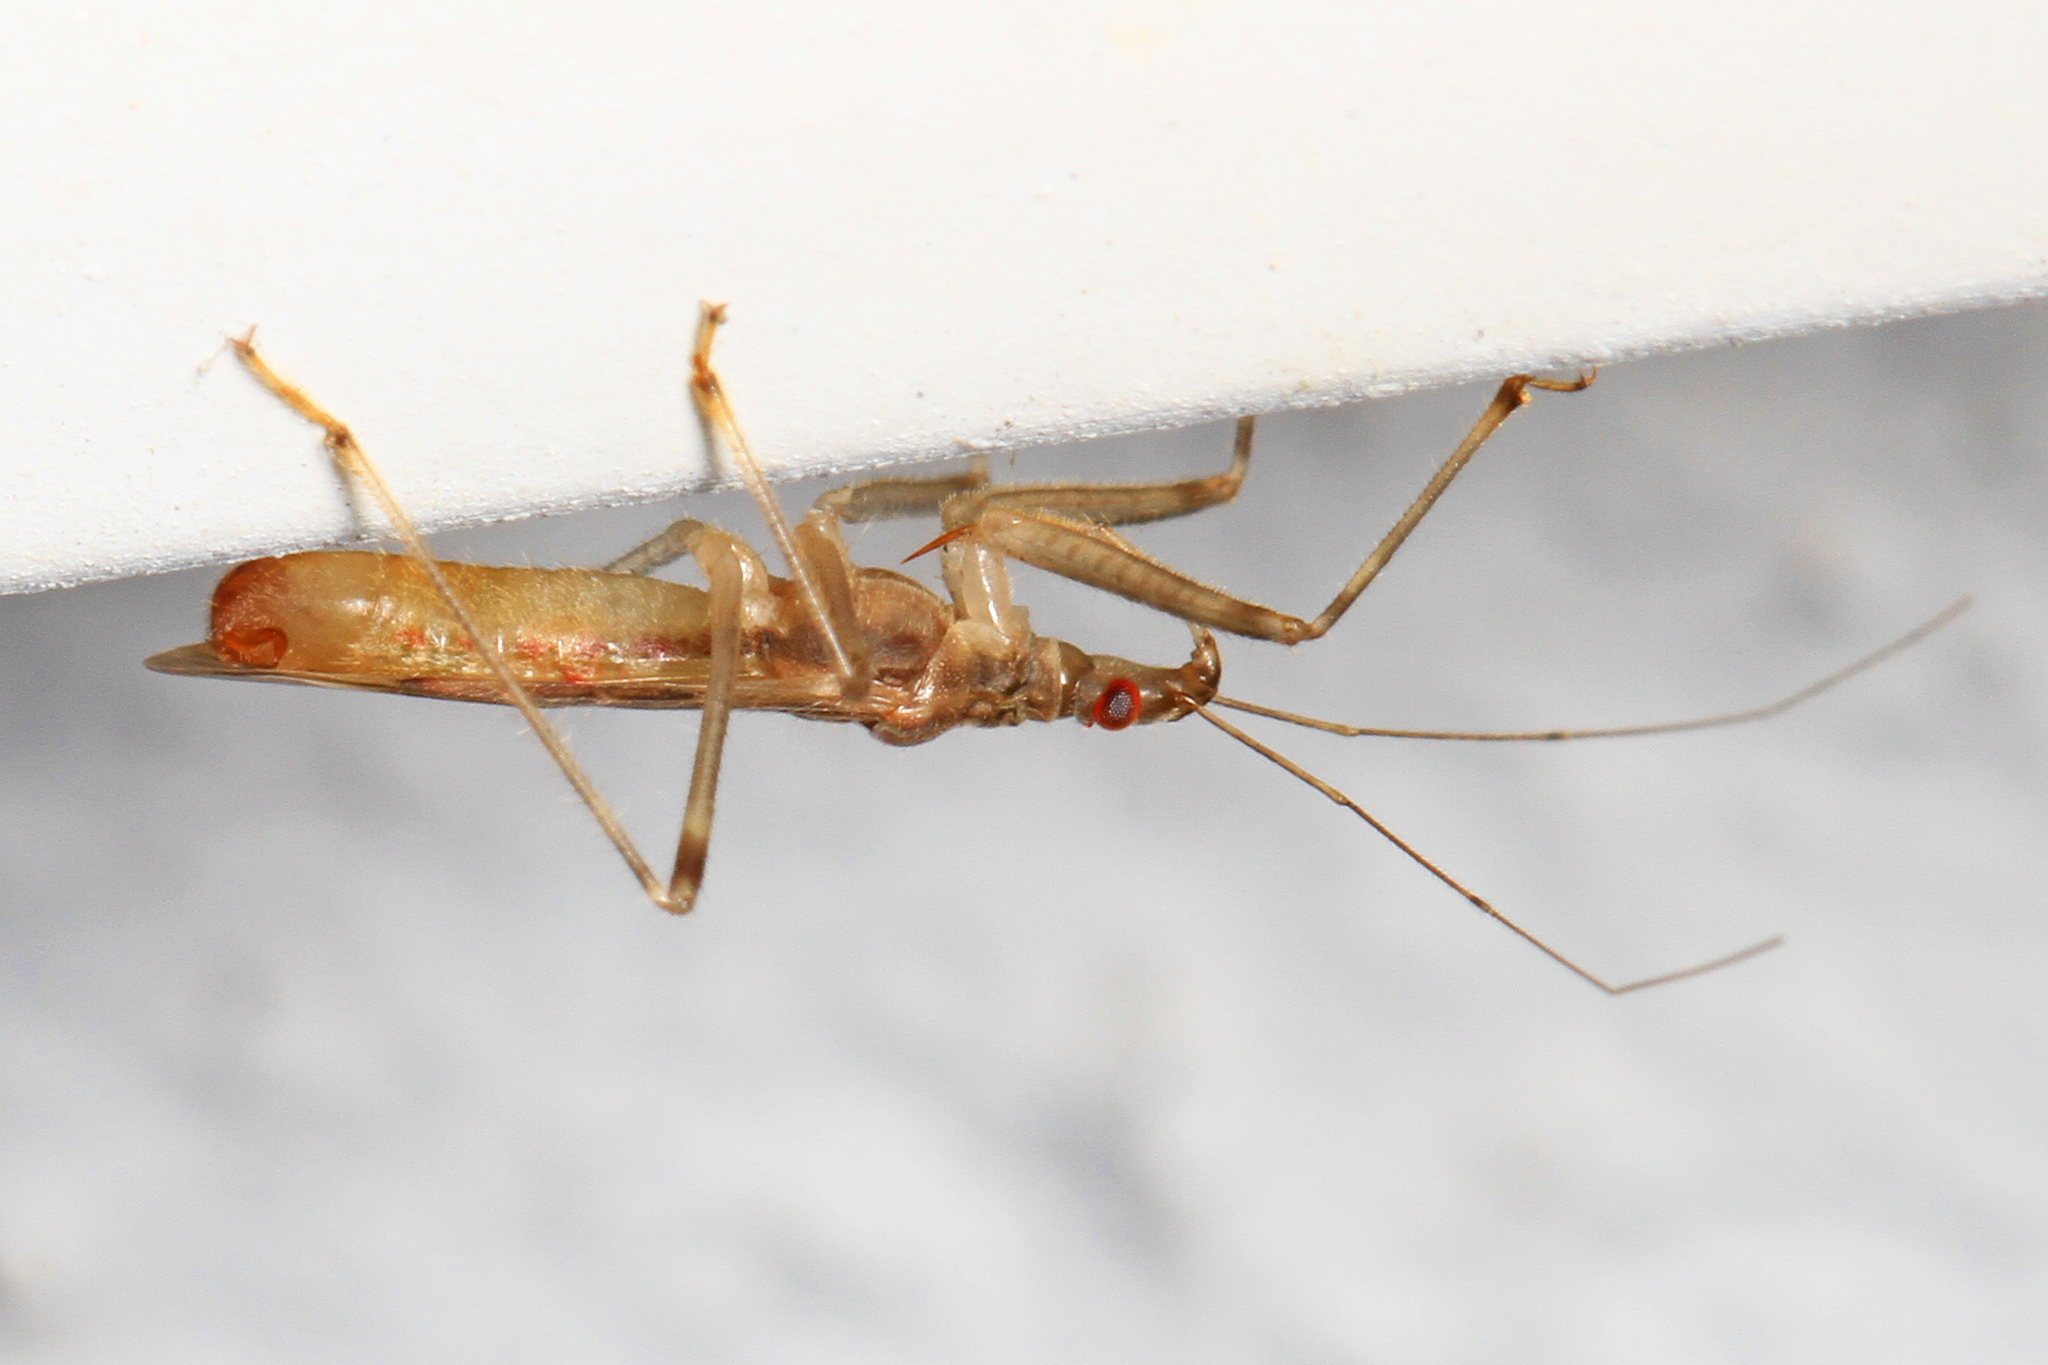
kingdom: Animalia
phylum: Arthropoda
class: Insecta
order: Hemiptera
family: Nabidae
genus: Lasiomerus
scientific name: Lasiomerus annulatus
